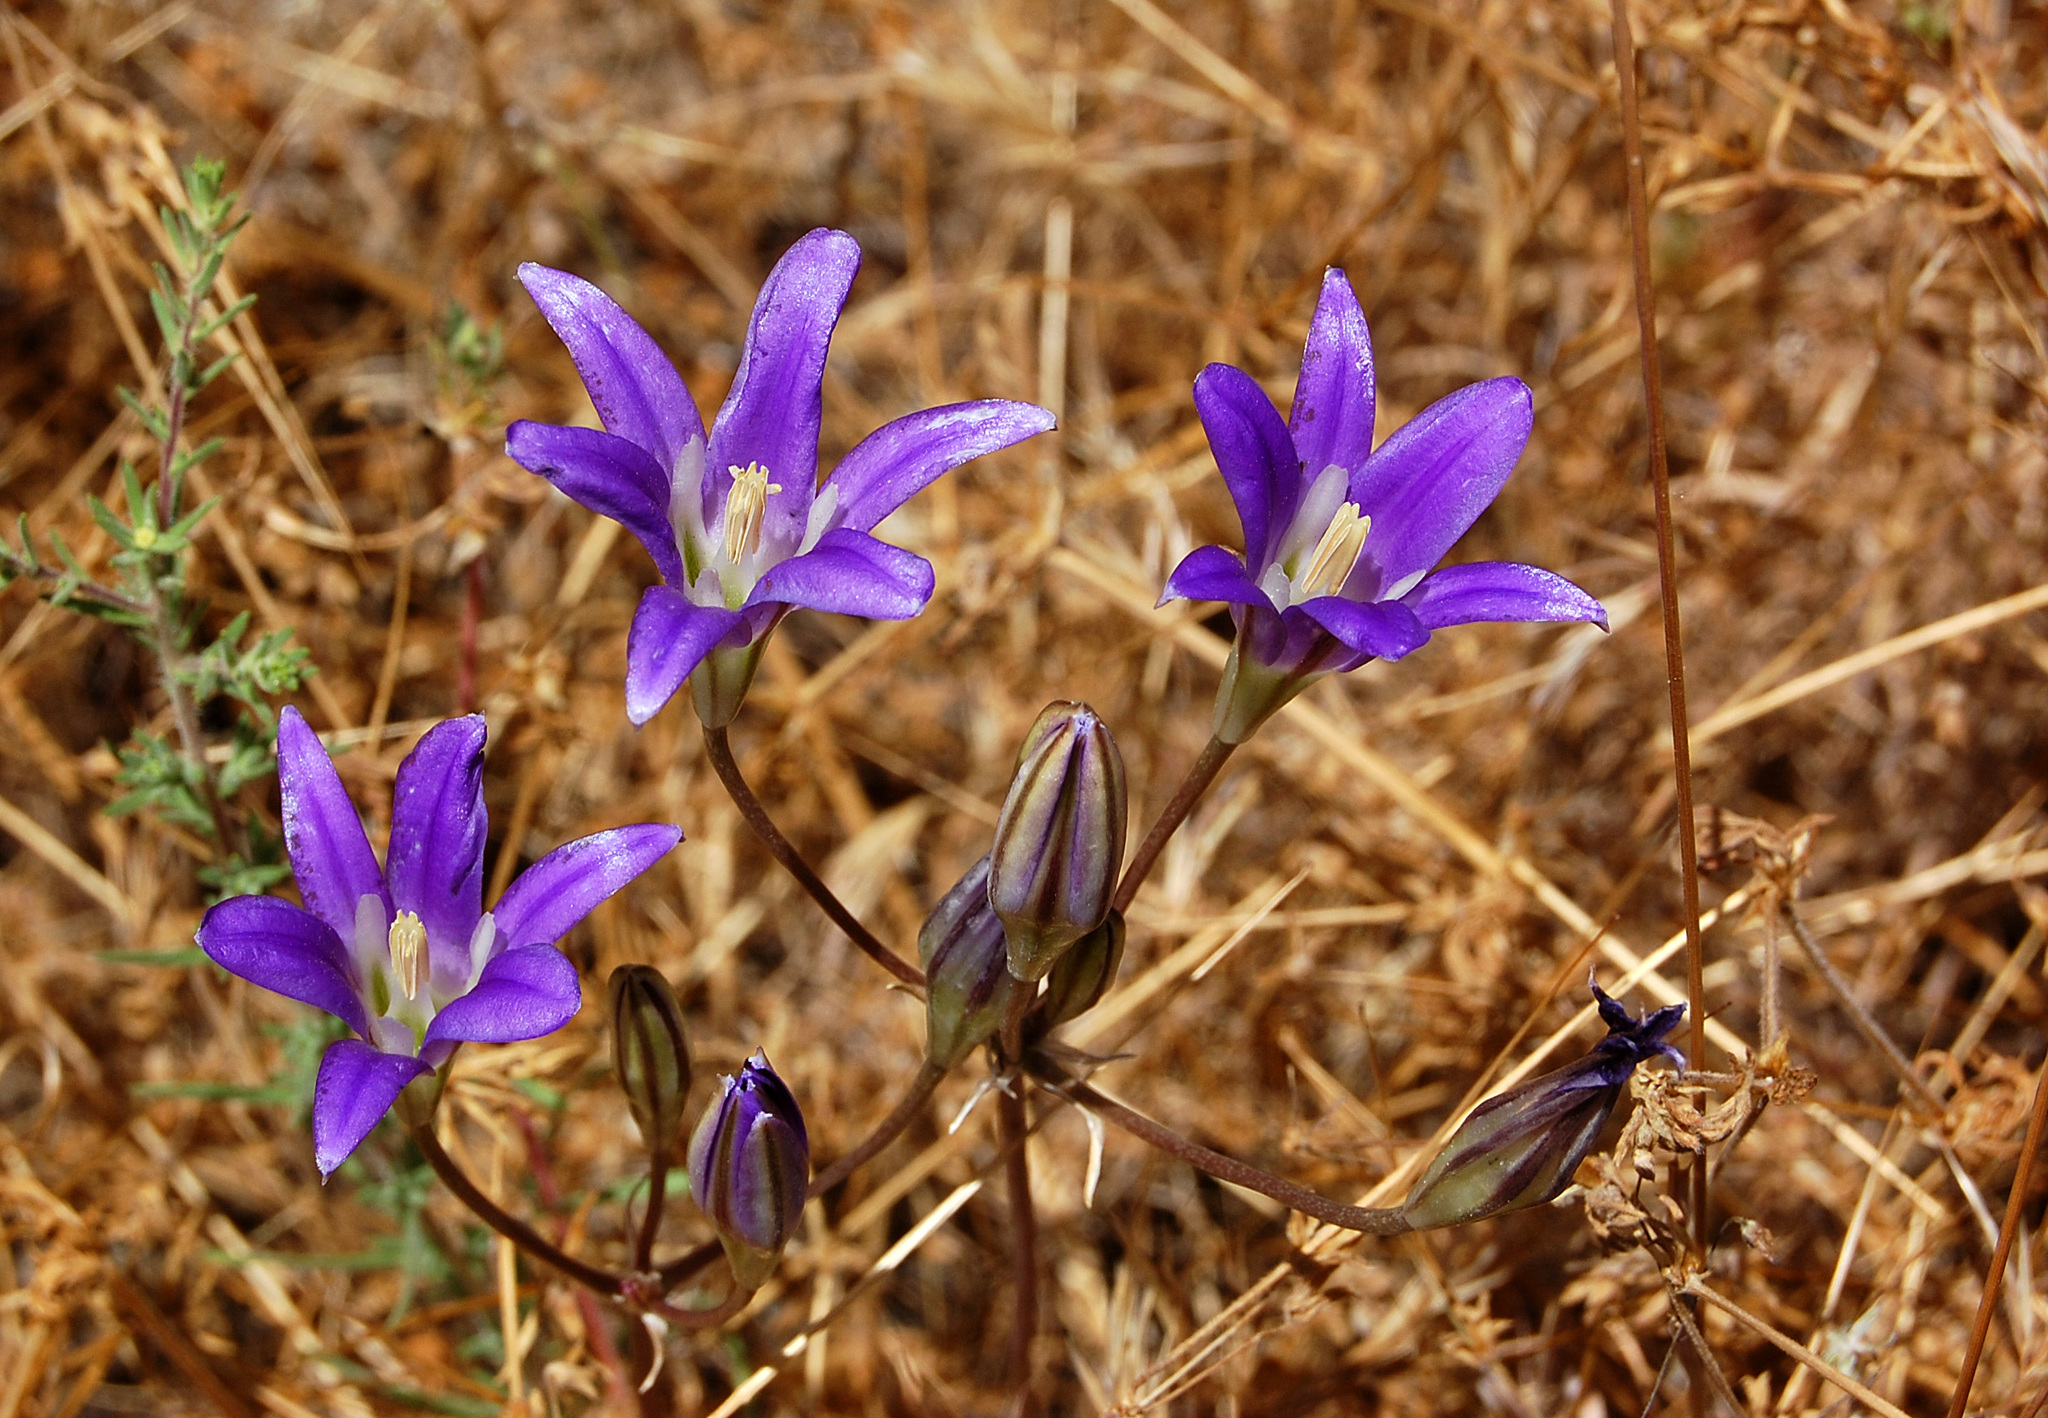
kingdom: Plantae
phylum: Tracheophyta
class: Liliopsida
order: Asparagales
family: Asparagaceae
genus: Brodiaea
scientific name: Brodiaea elegans
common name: Elegant cluster-lily
